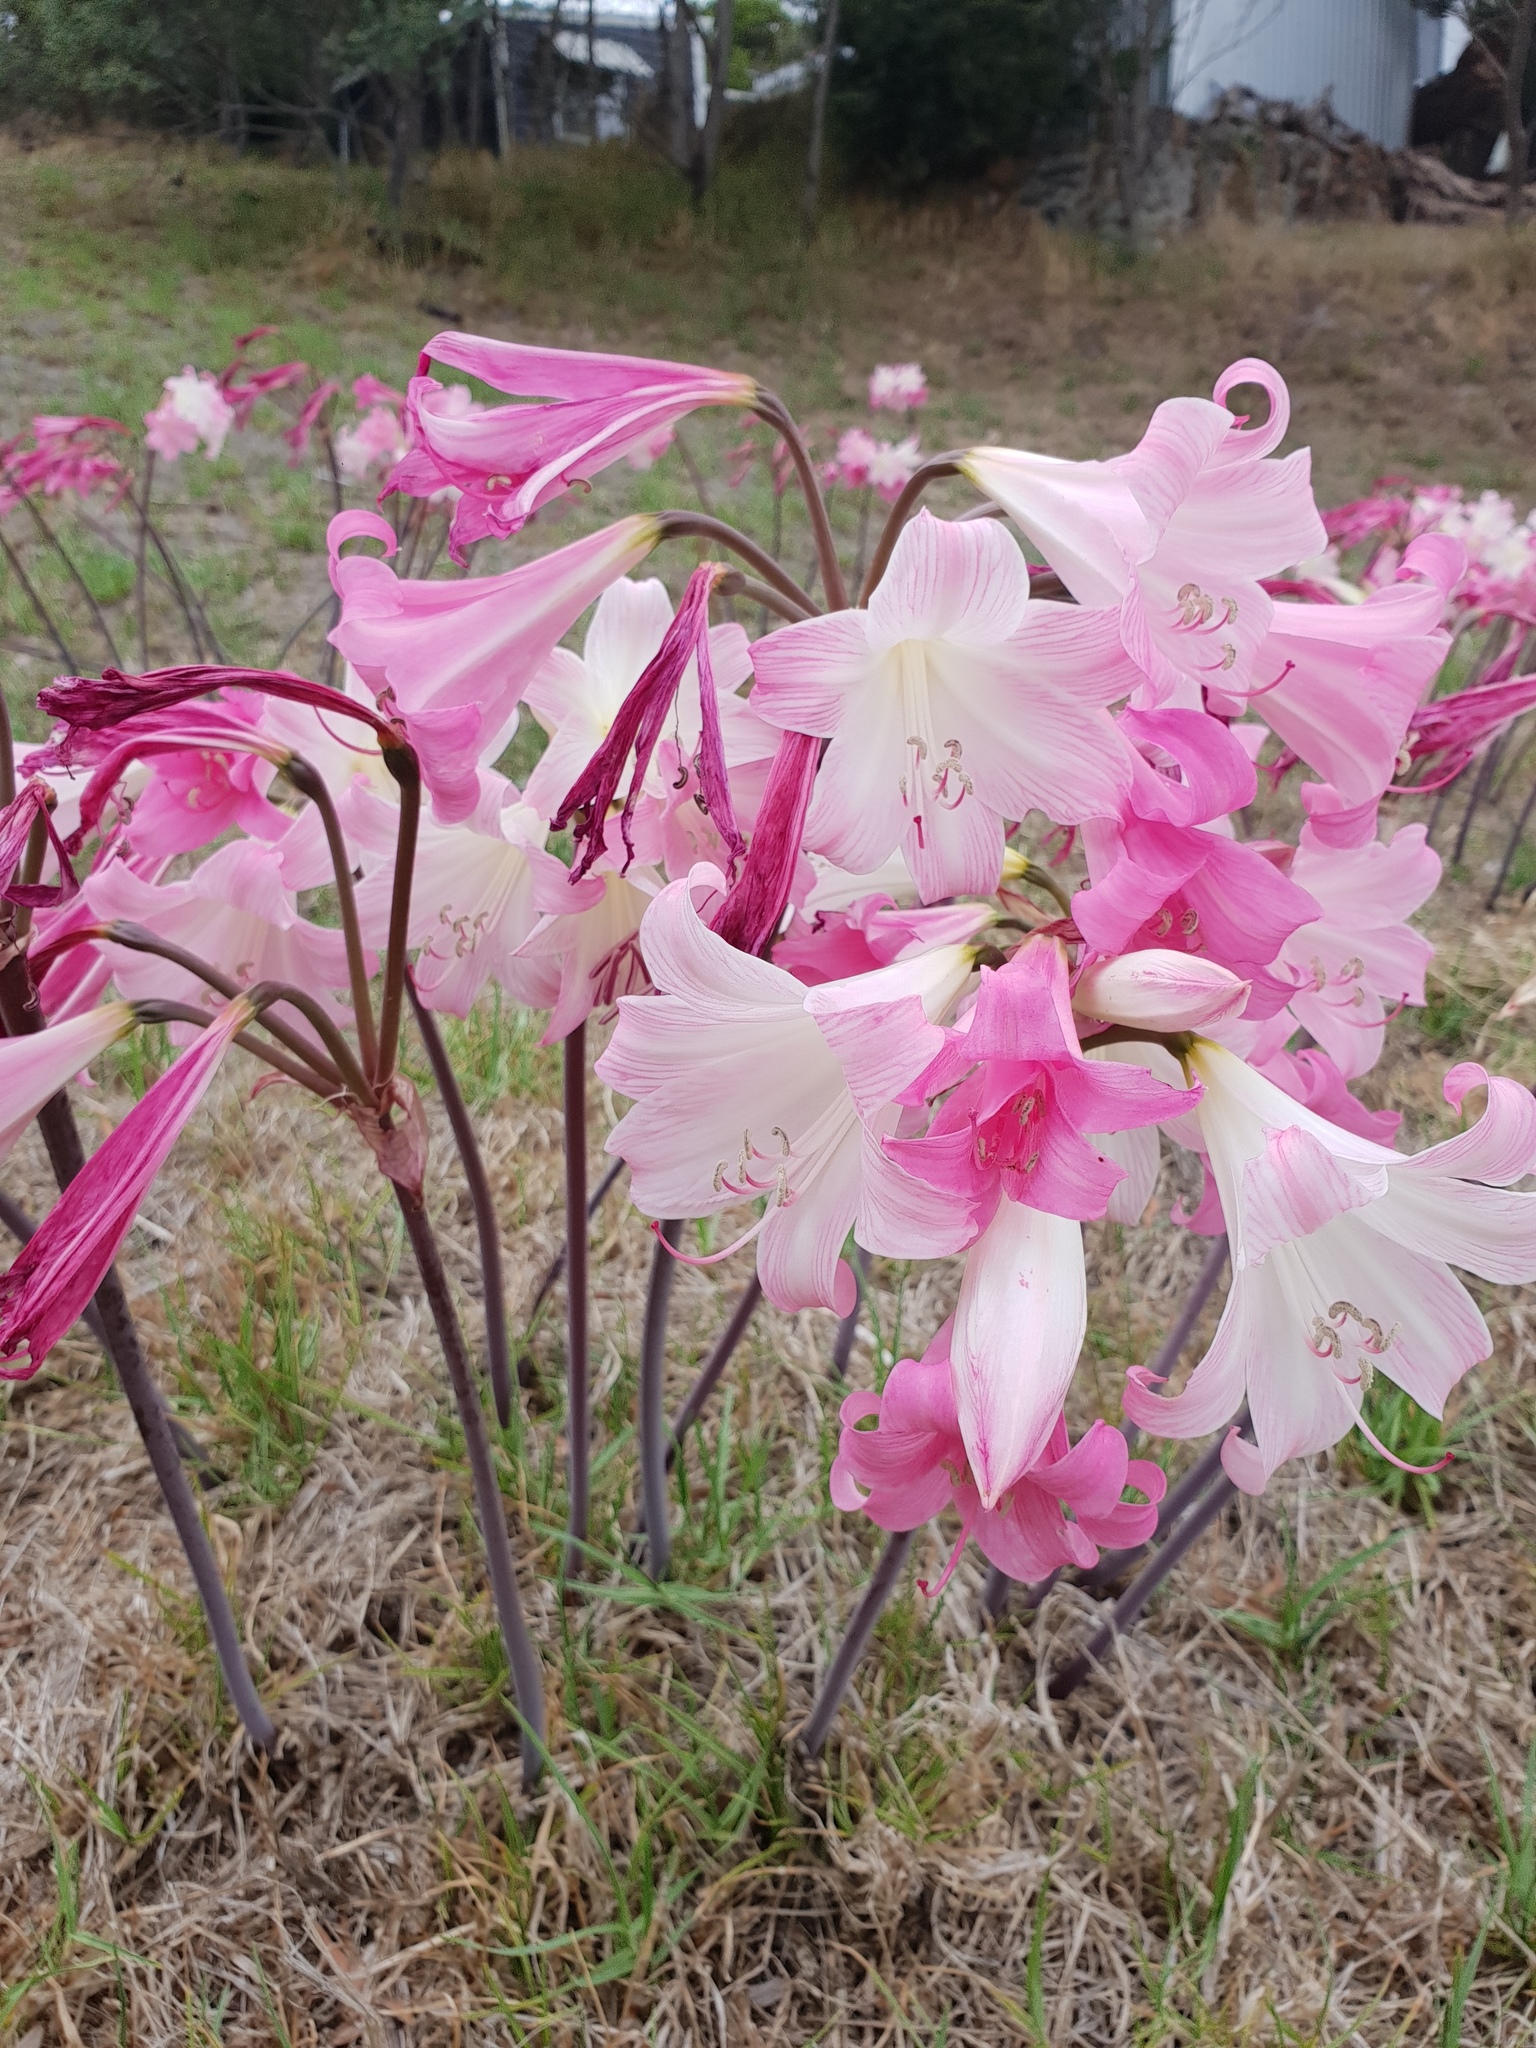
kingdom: Plantae
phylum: Tracheophyta
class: Liliopsida
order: Asparagales
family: Amaryllidaceae
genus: Amaryllis
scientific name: Amaryllis belladonna
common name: Jersey lily
